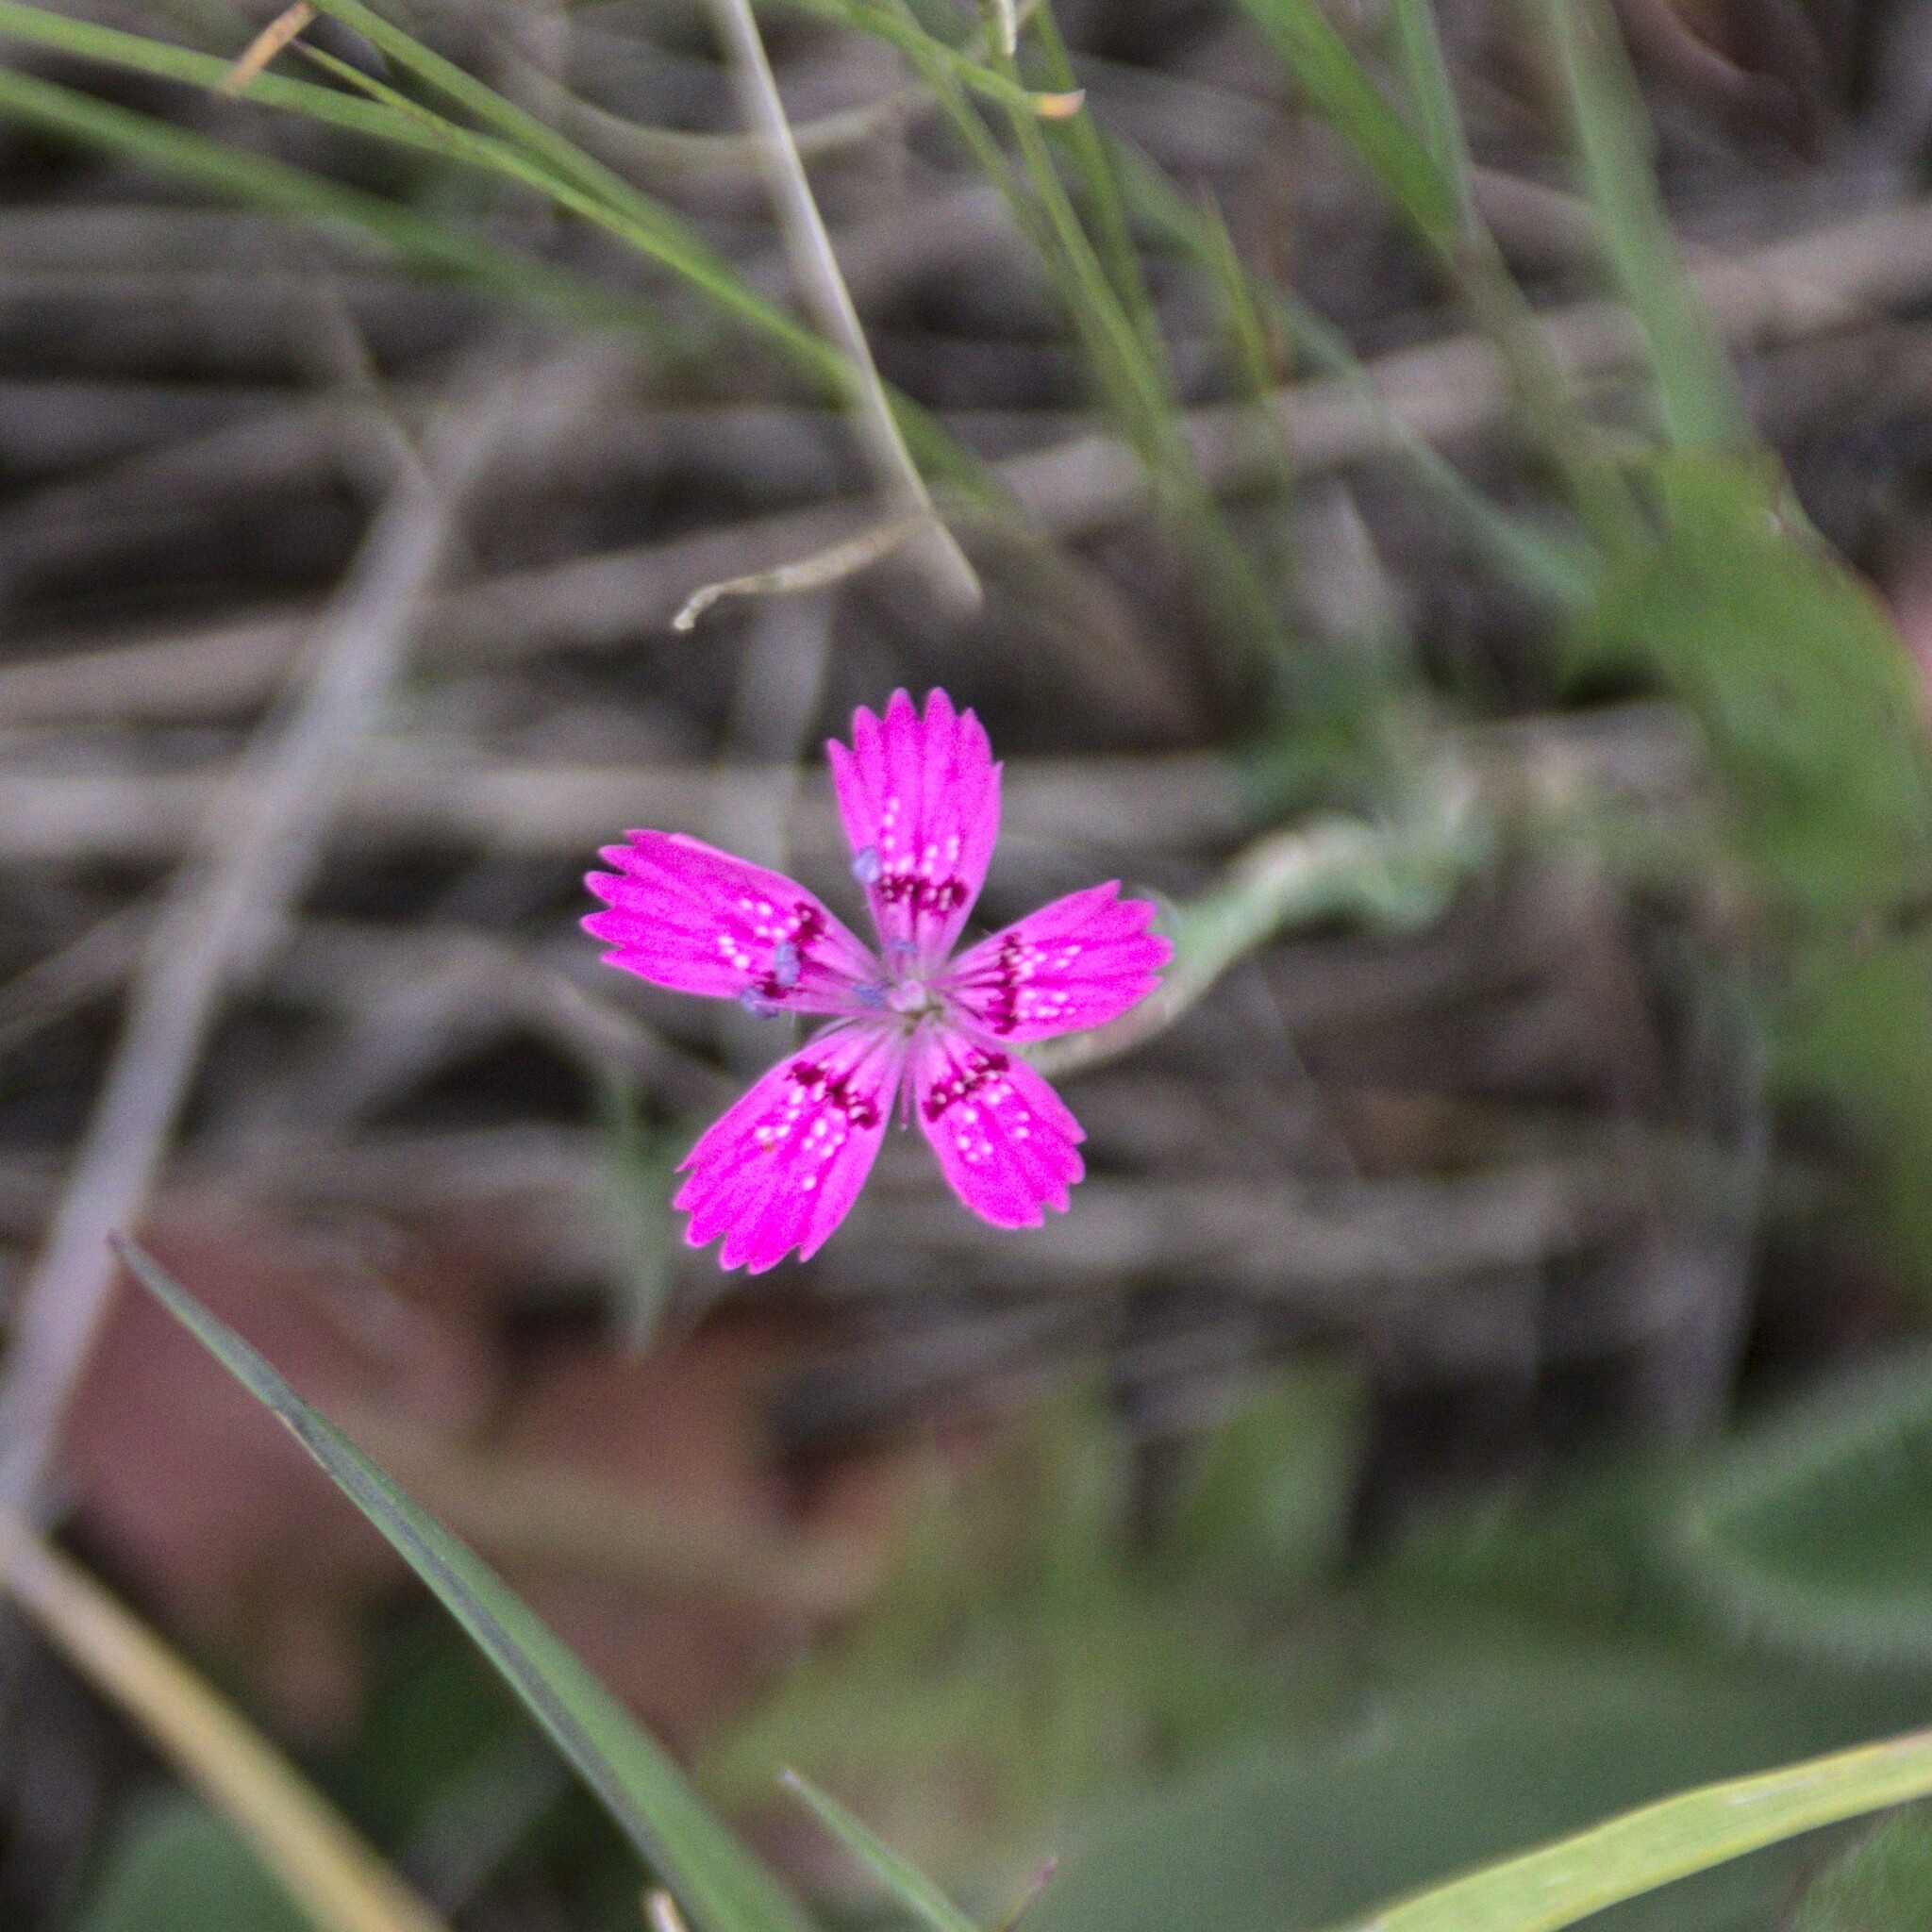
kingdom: Plantae
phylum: Tracheophyta
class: Magnoliopsida
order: Caryophyllales
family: Caryophyllaceae
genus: Dianthus
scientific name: Dianthus deltoides
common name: Maiden pink
